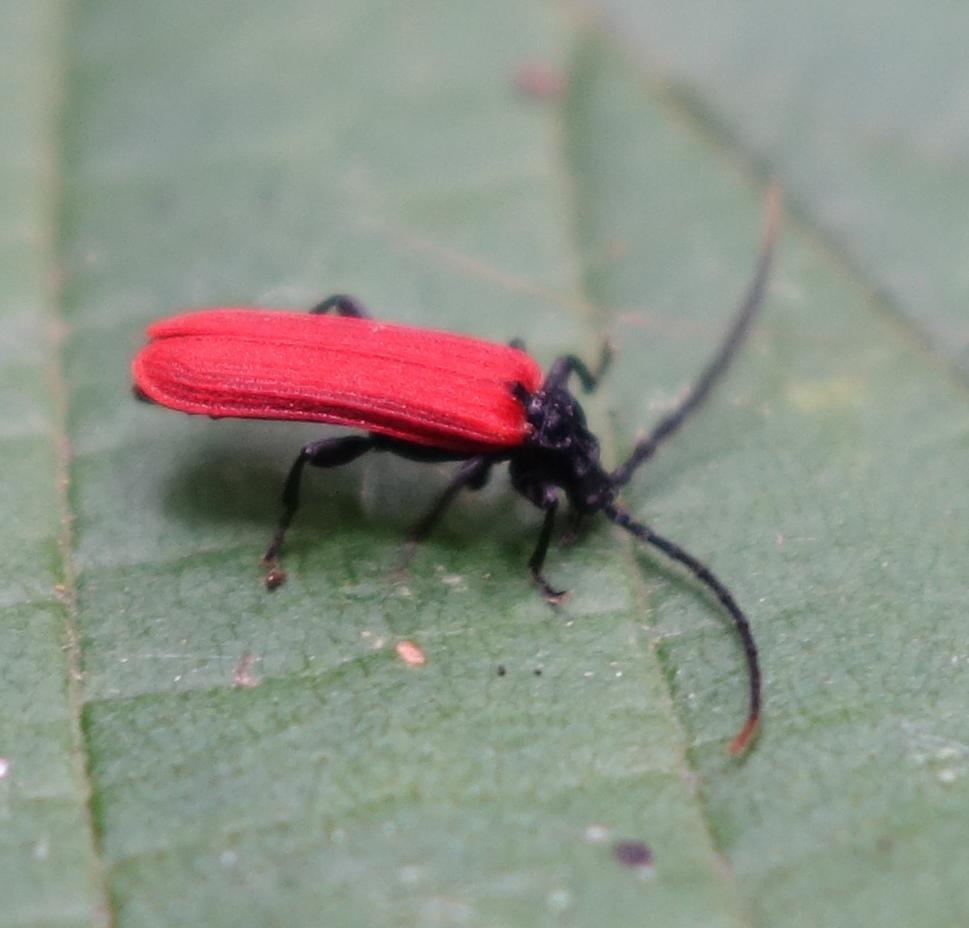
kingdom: Animalia
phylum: Arthropoda
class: Insecta
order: Coleoptera
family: Lycidae
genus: Platycis
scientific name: Platycis minutus
